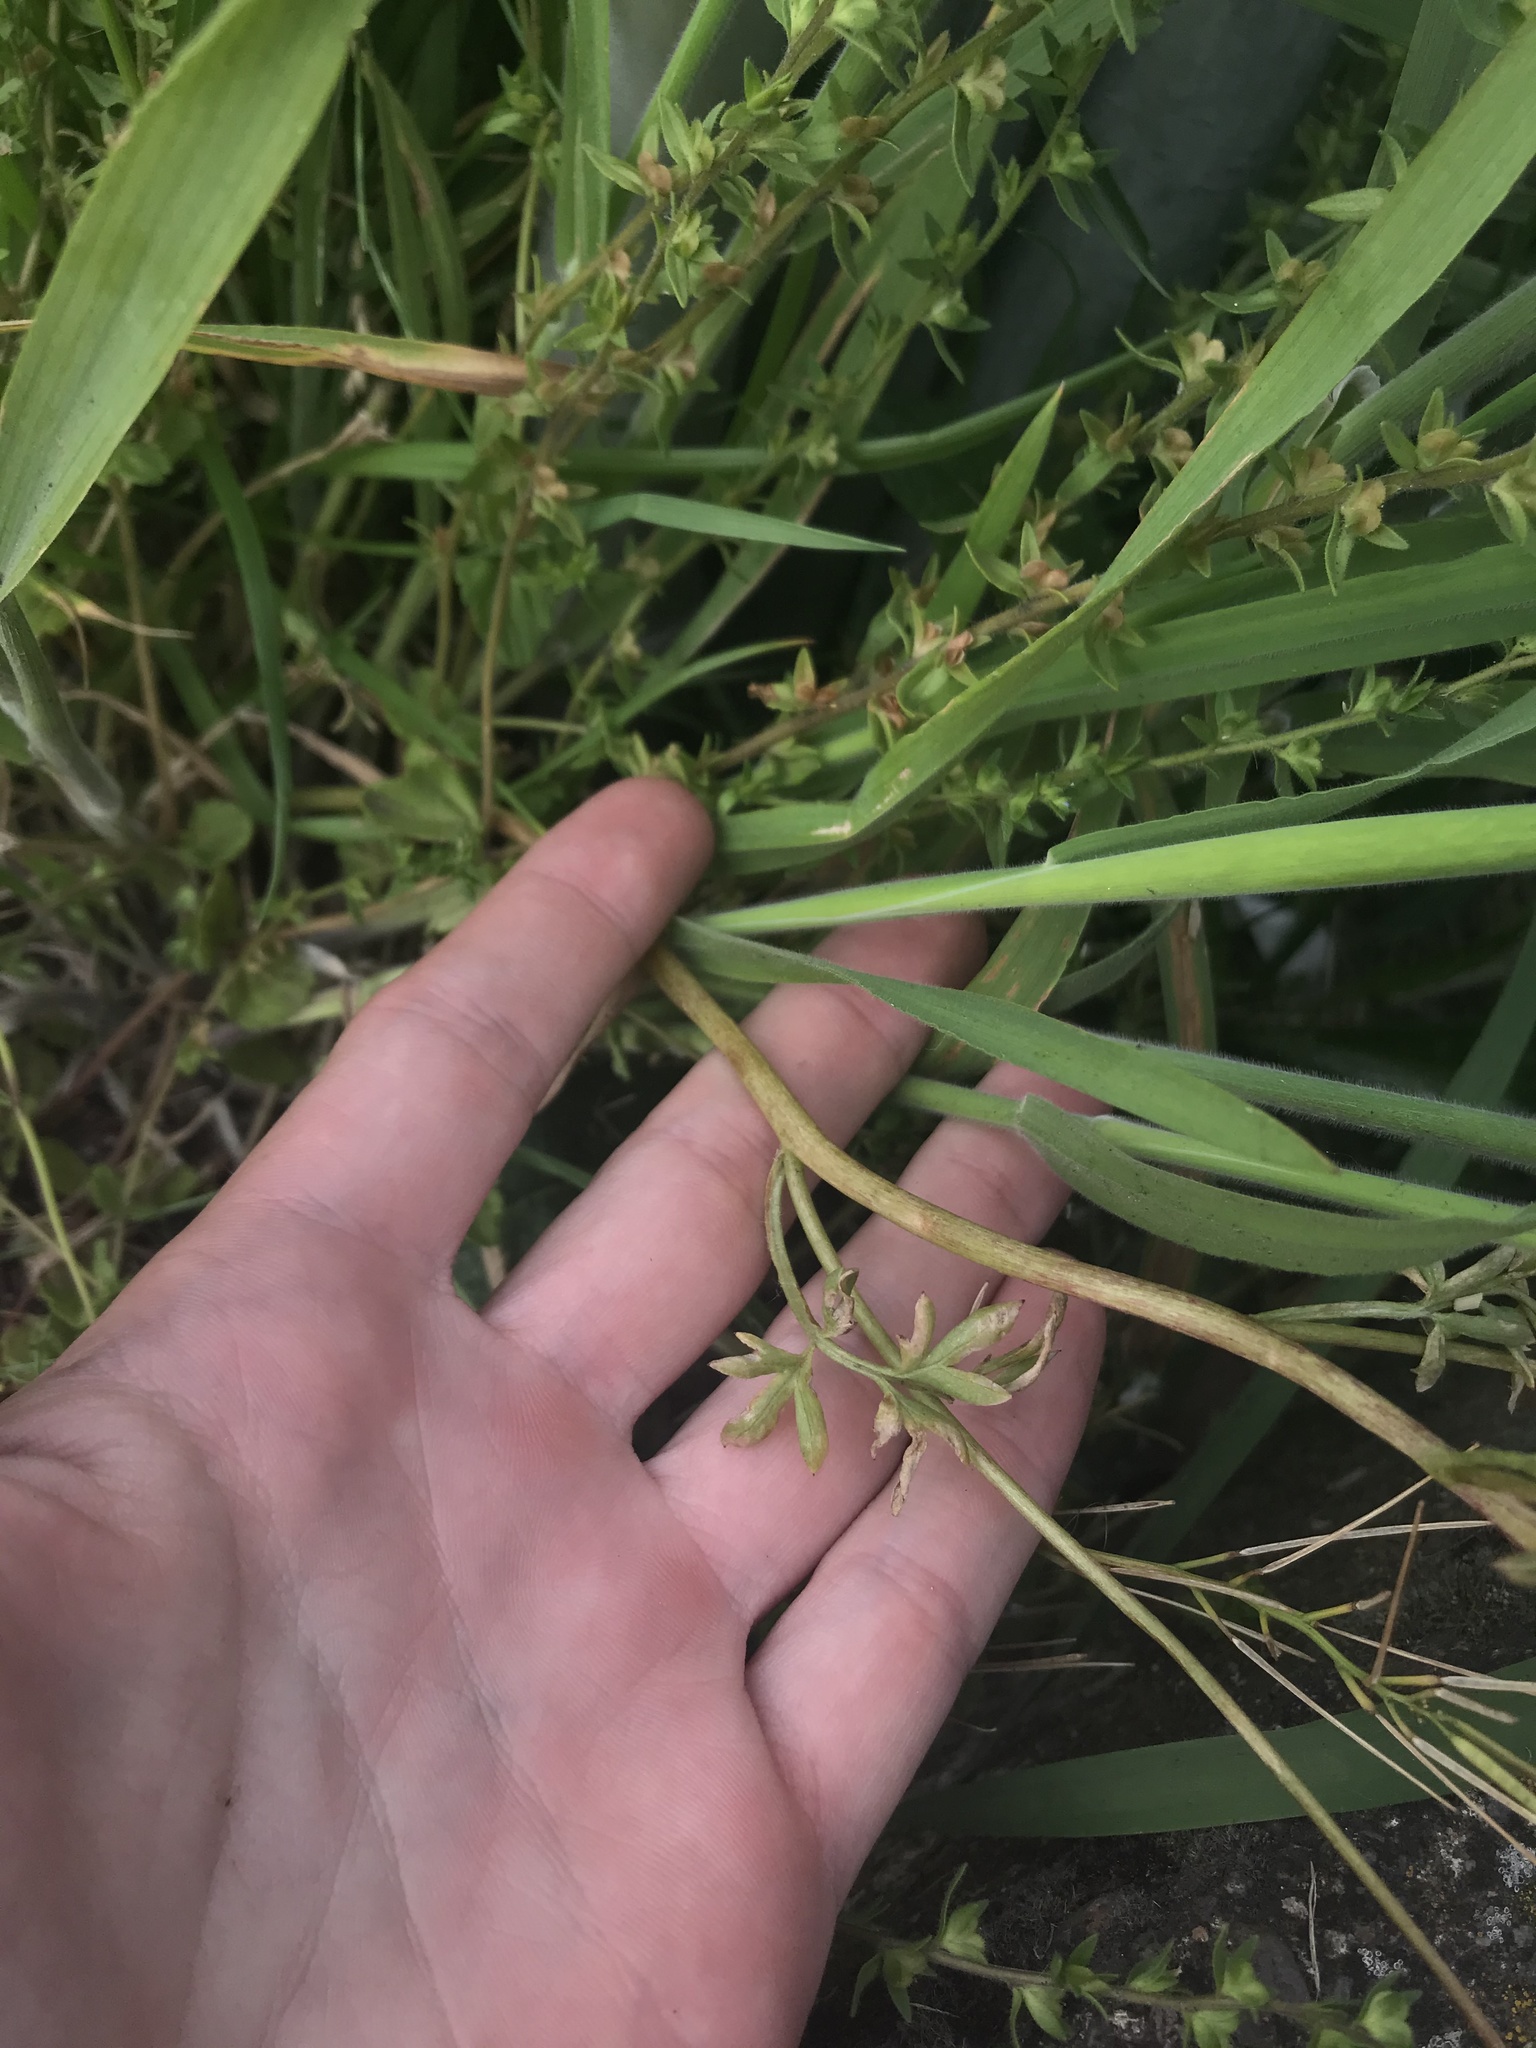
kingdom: Plantae
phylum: Tracheophyta
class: Magnoliopsida
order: Brassicales
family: Limnanthaceae
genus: Limnanthes
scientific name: Limnanthes alba
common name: Meadowfoam
